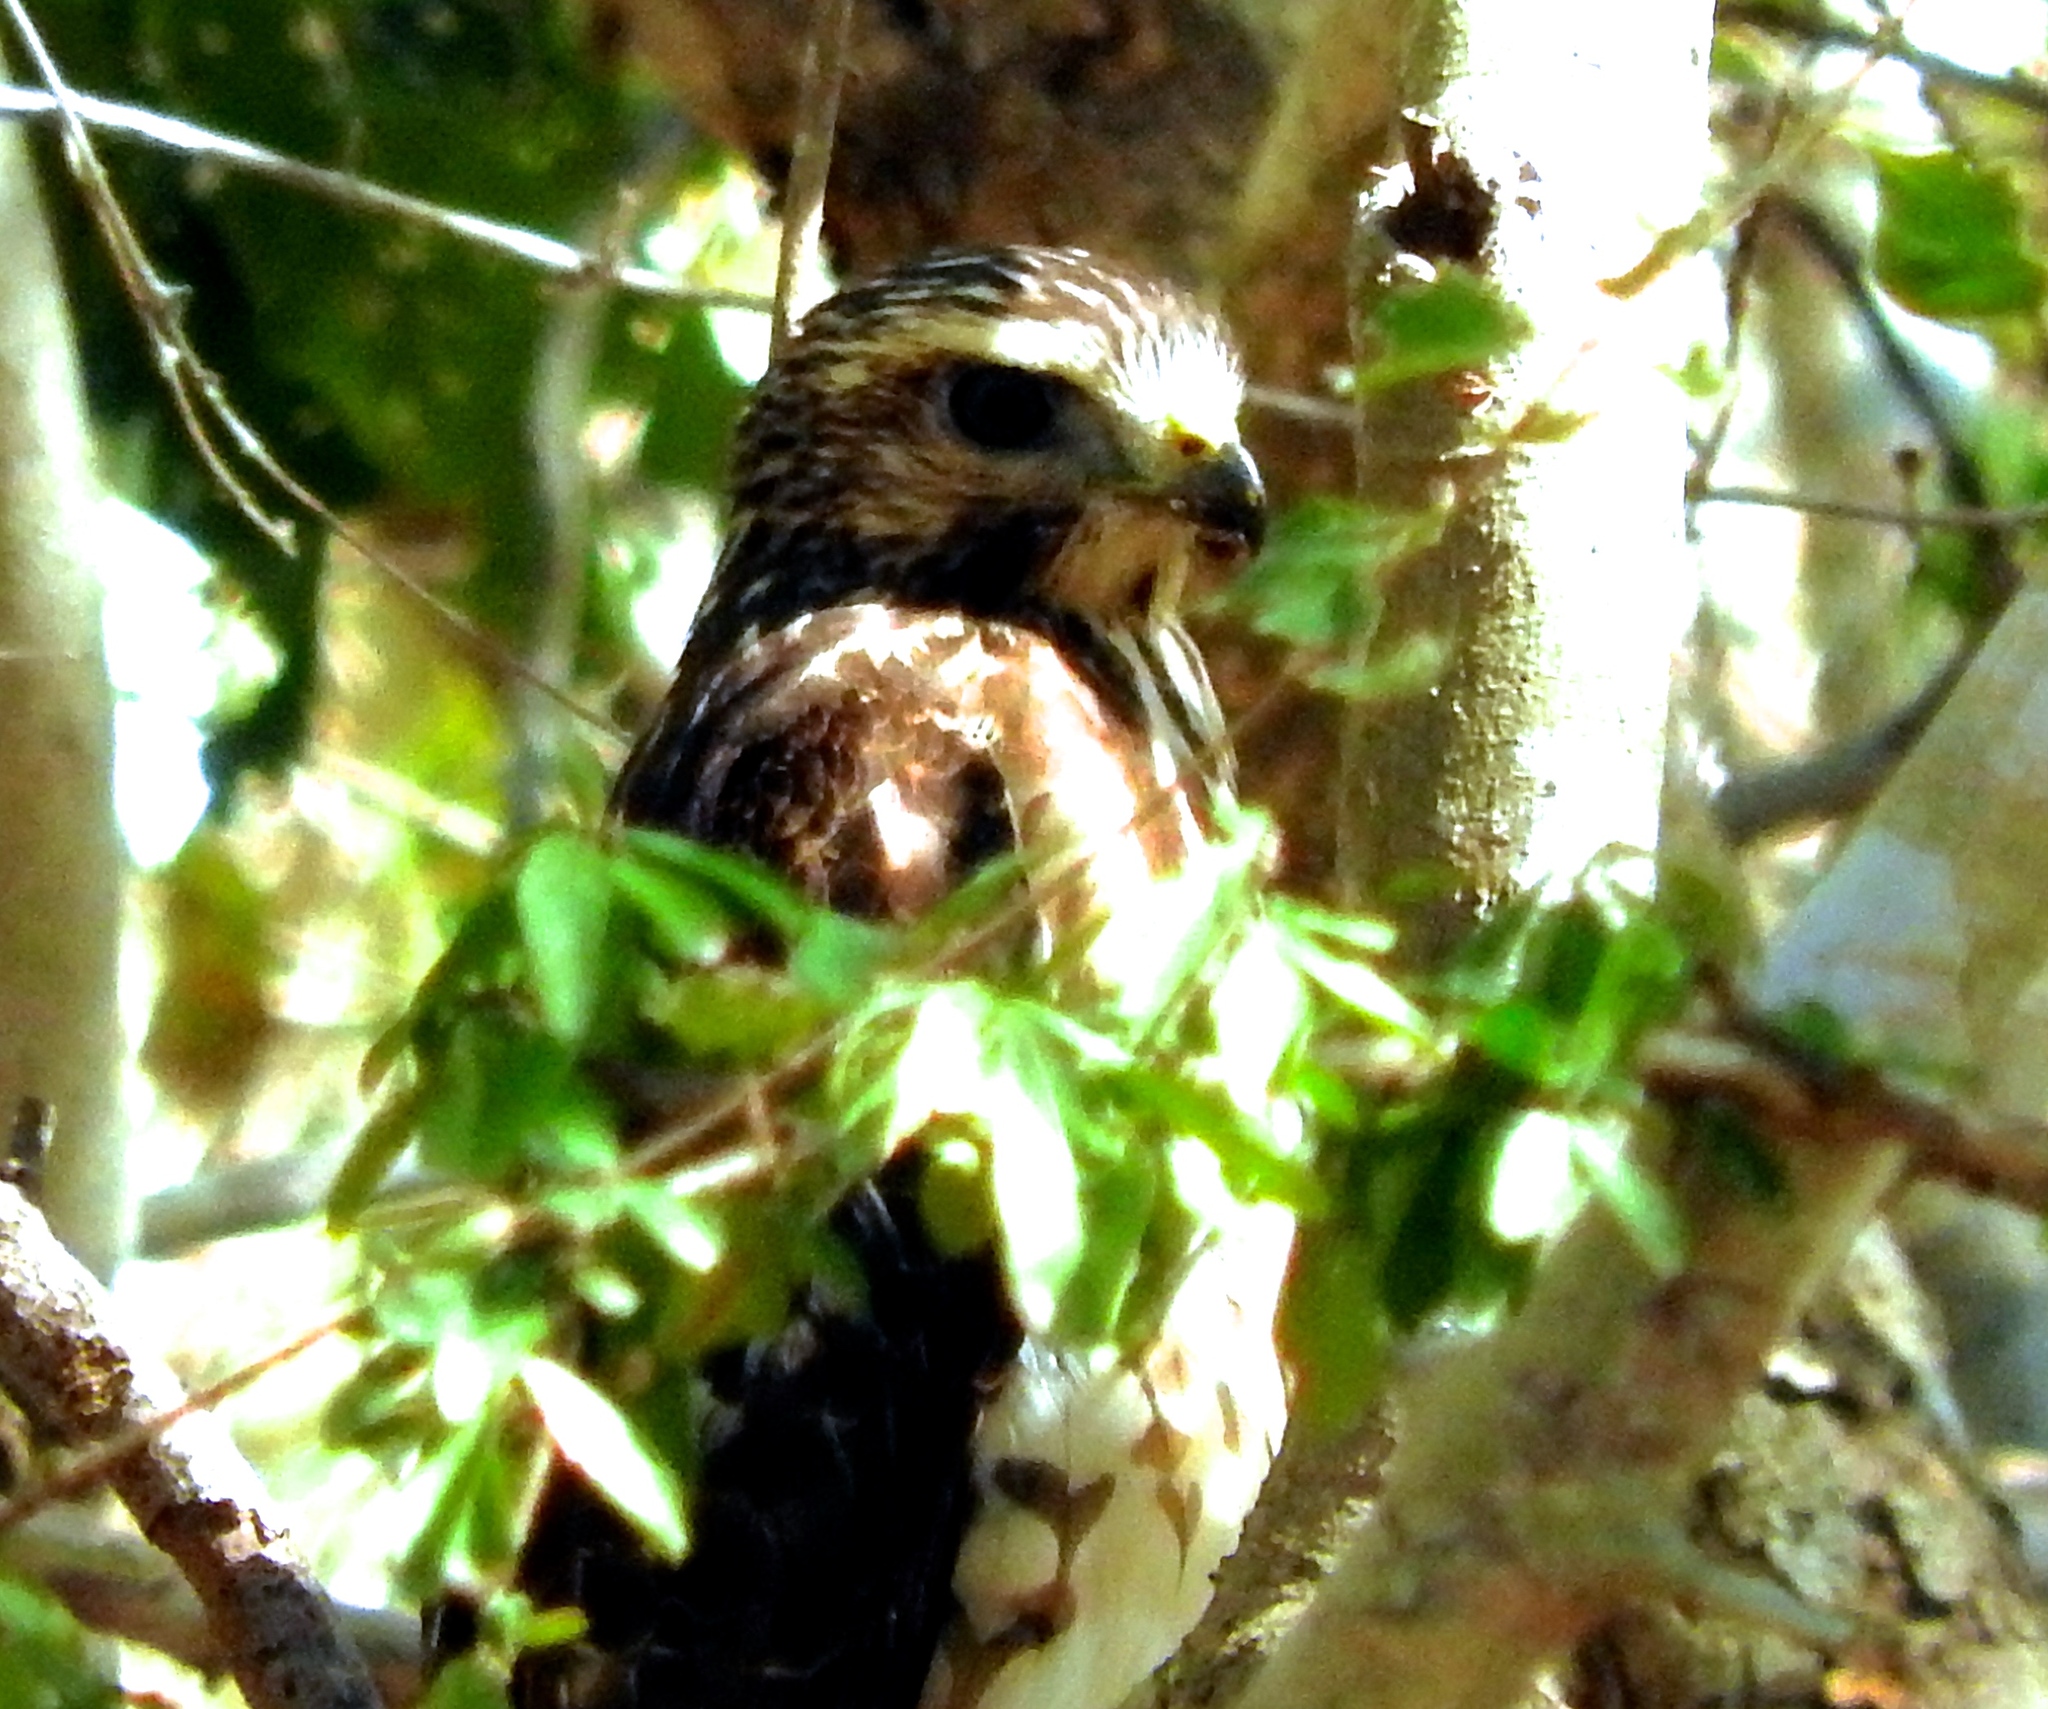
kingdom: Animalia
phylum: Chordata
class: Aves
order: Accipitriformes
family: Accipitridae
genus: Buteo
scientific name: Buteo nitidus
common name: Grey-lined hawk
